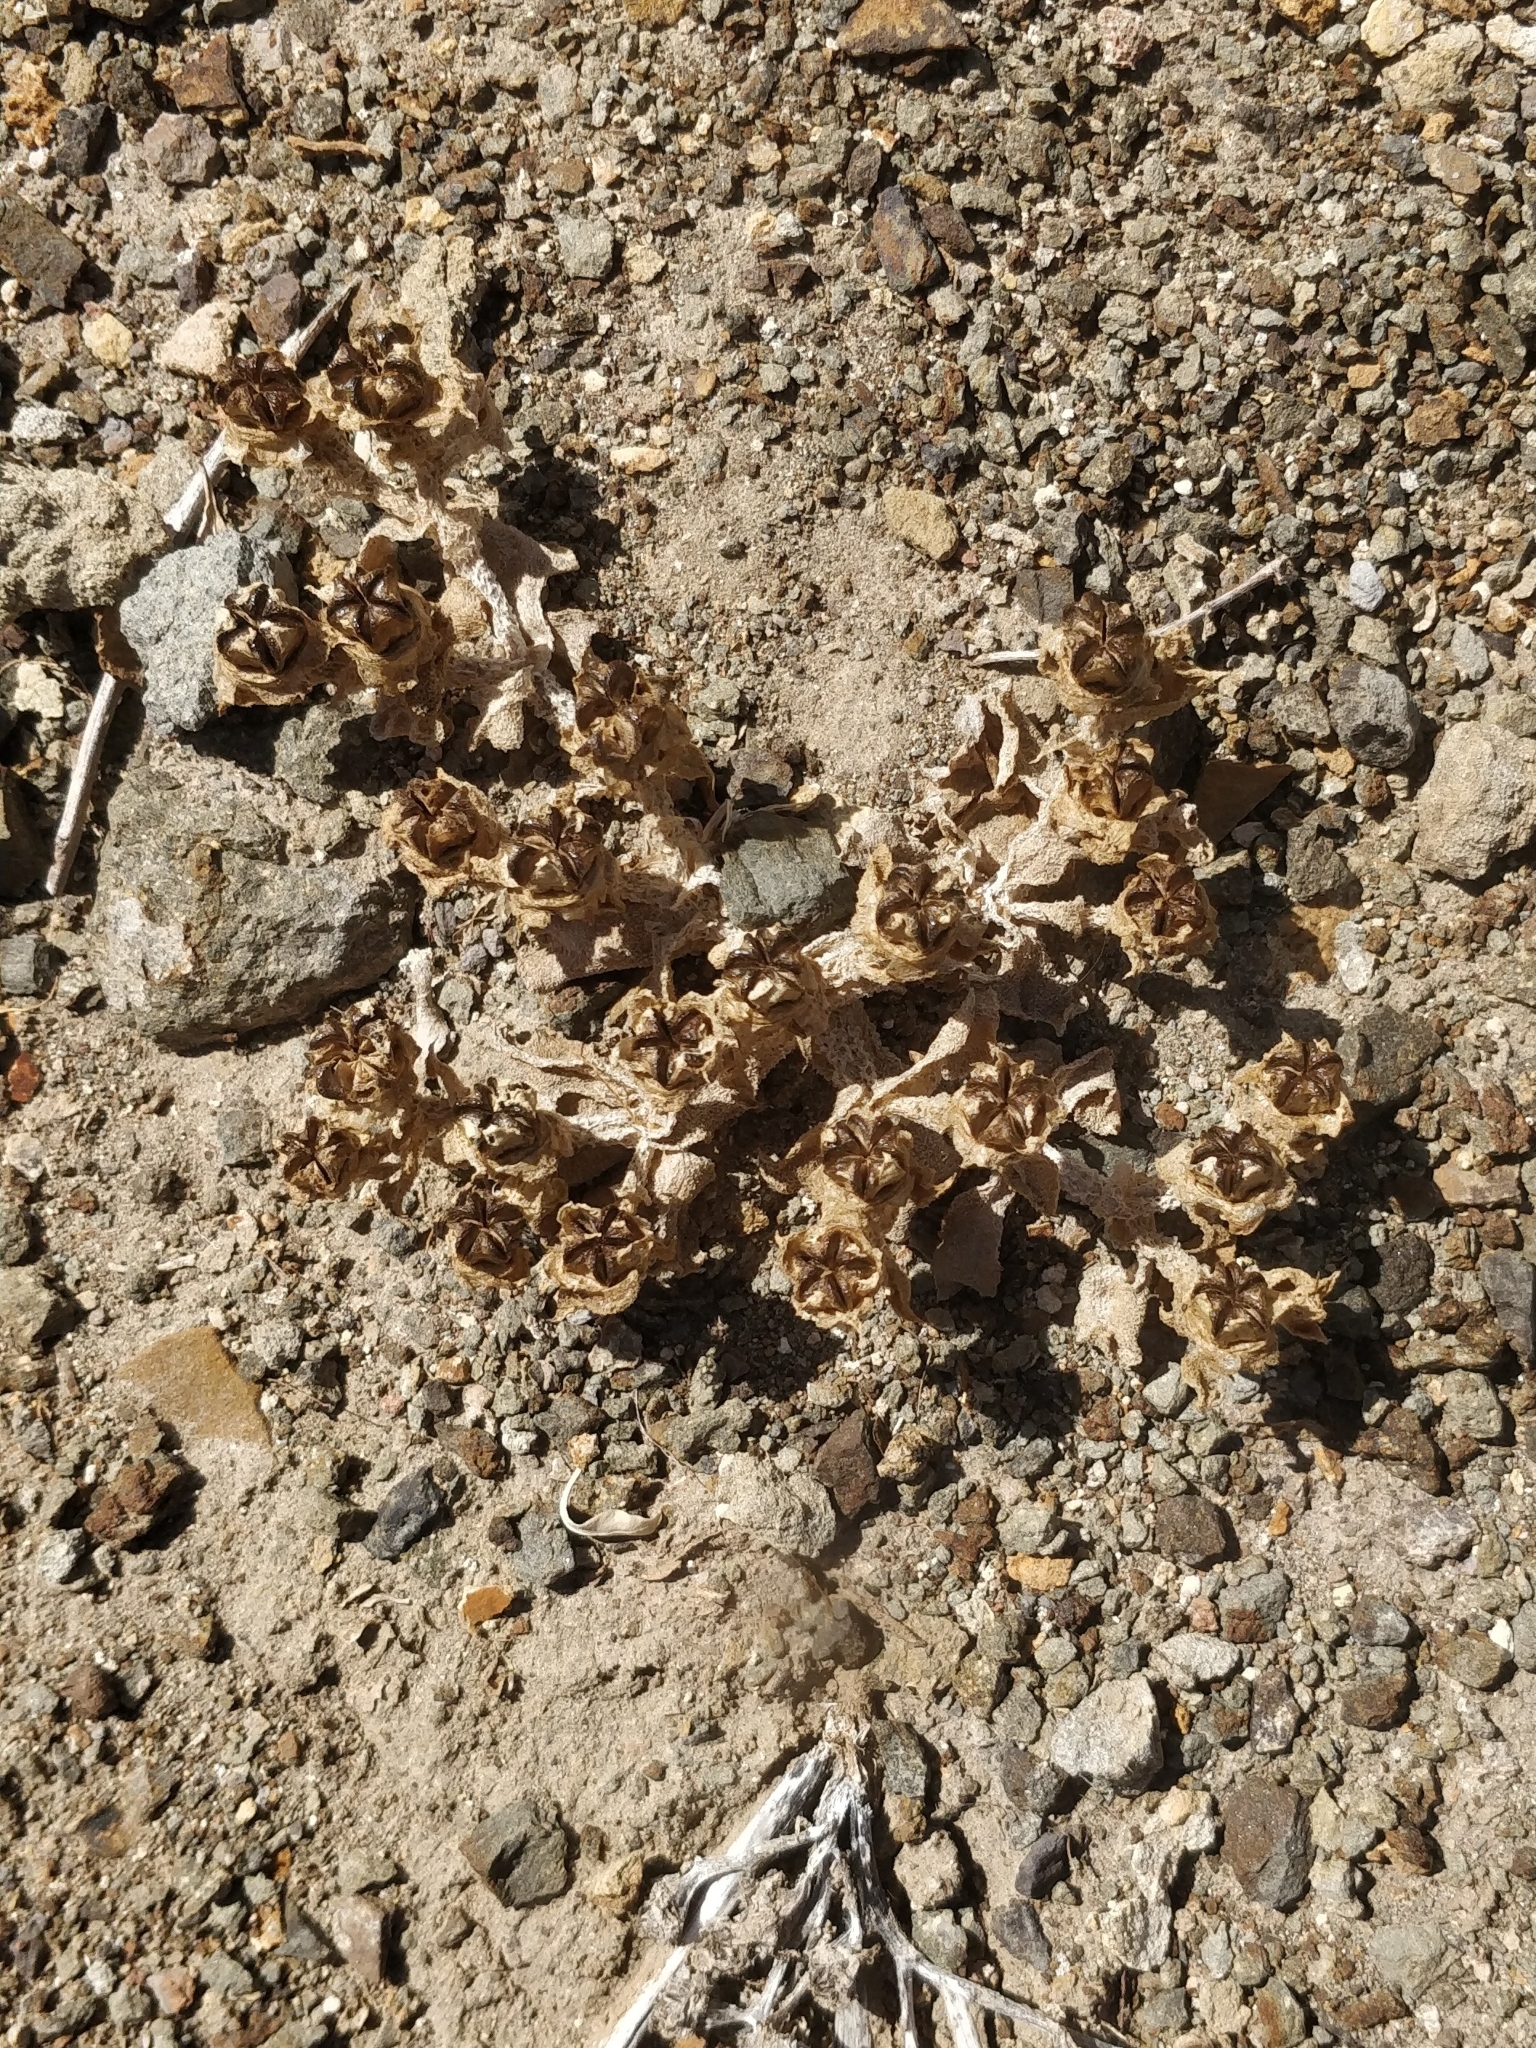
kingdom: Plantae
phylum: Tracheophyta
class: Magnoliopsida
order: Caryophyllales
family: Aizoaceae
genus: Mesembryanthemum
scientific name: Mesembryanthemum crystallinum
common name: Common iceplant
